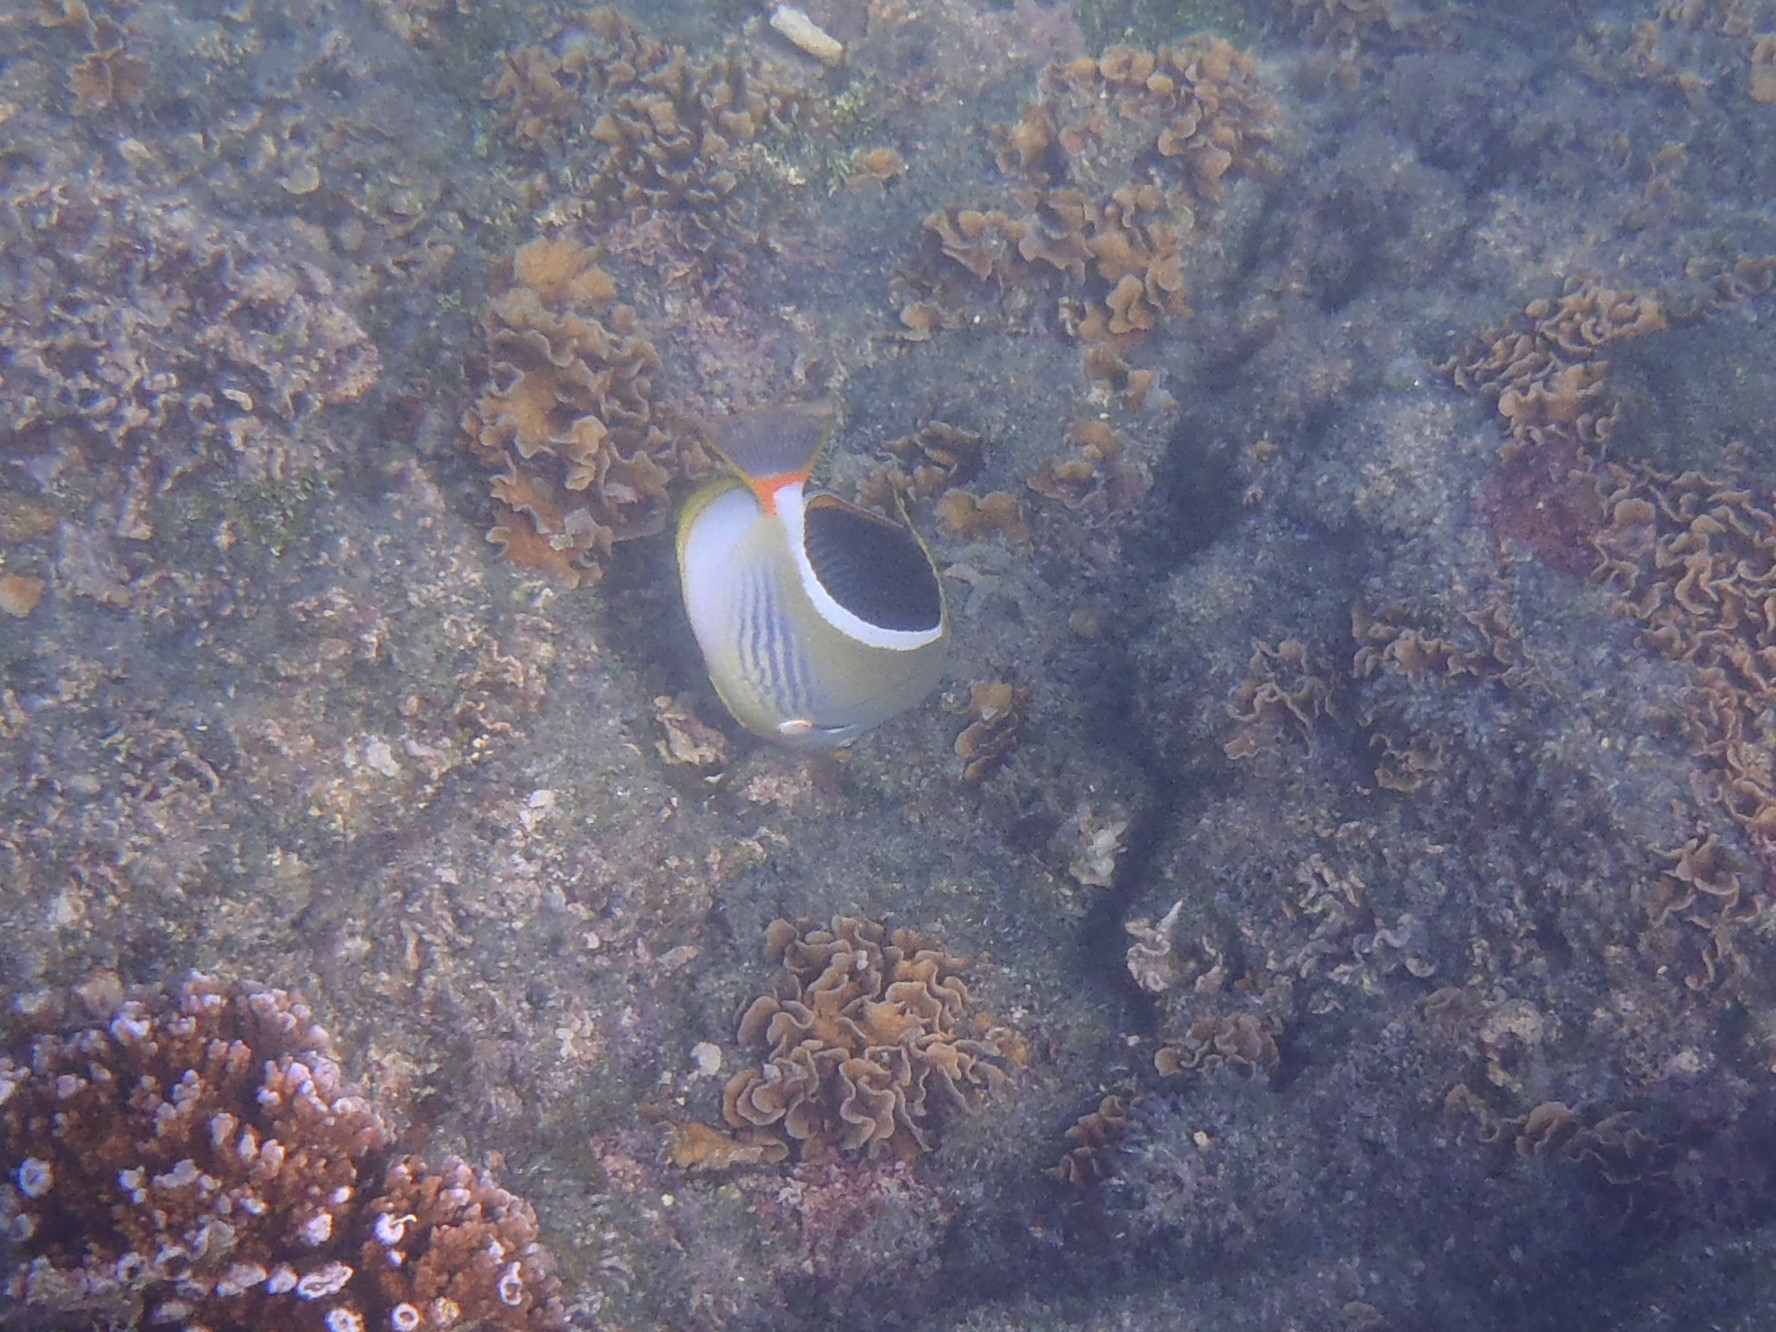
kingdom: Animalia
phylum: Chordata
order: Perciformes
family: Chaetodontidae
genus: Chaetodon
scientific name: Chaetodon ephippium
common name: Saddled butterflyfish
